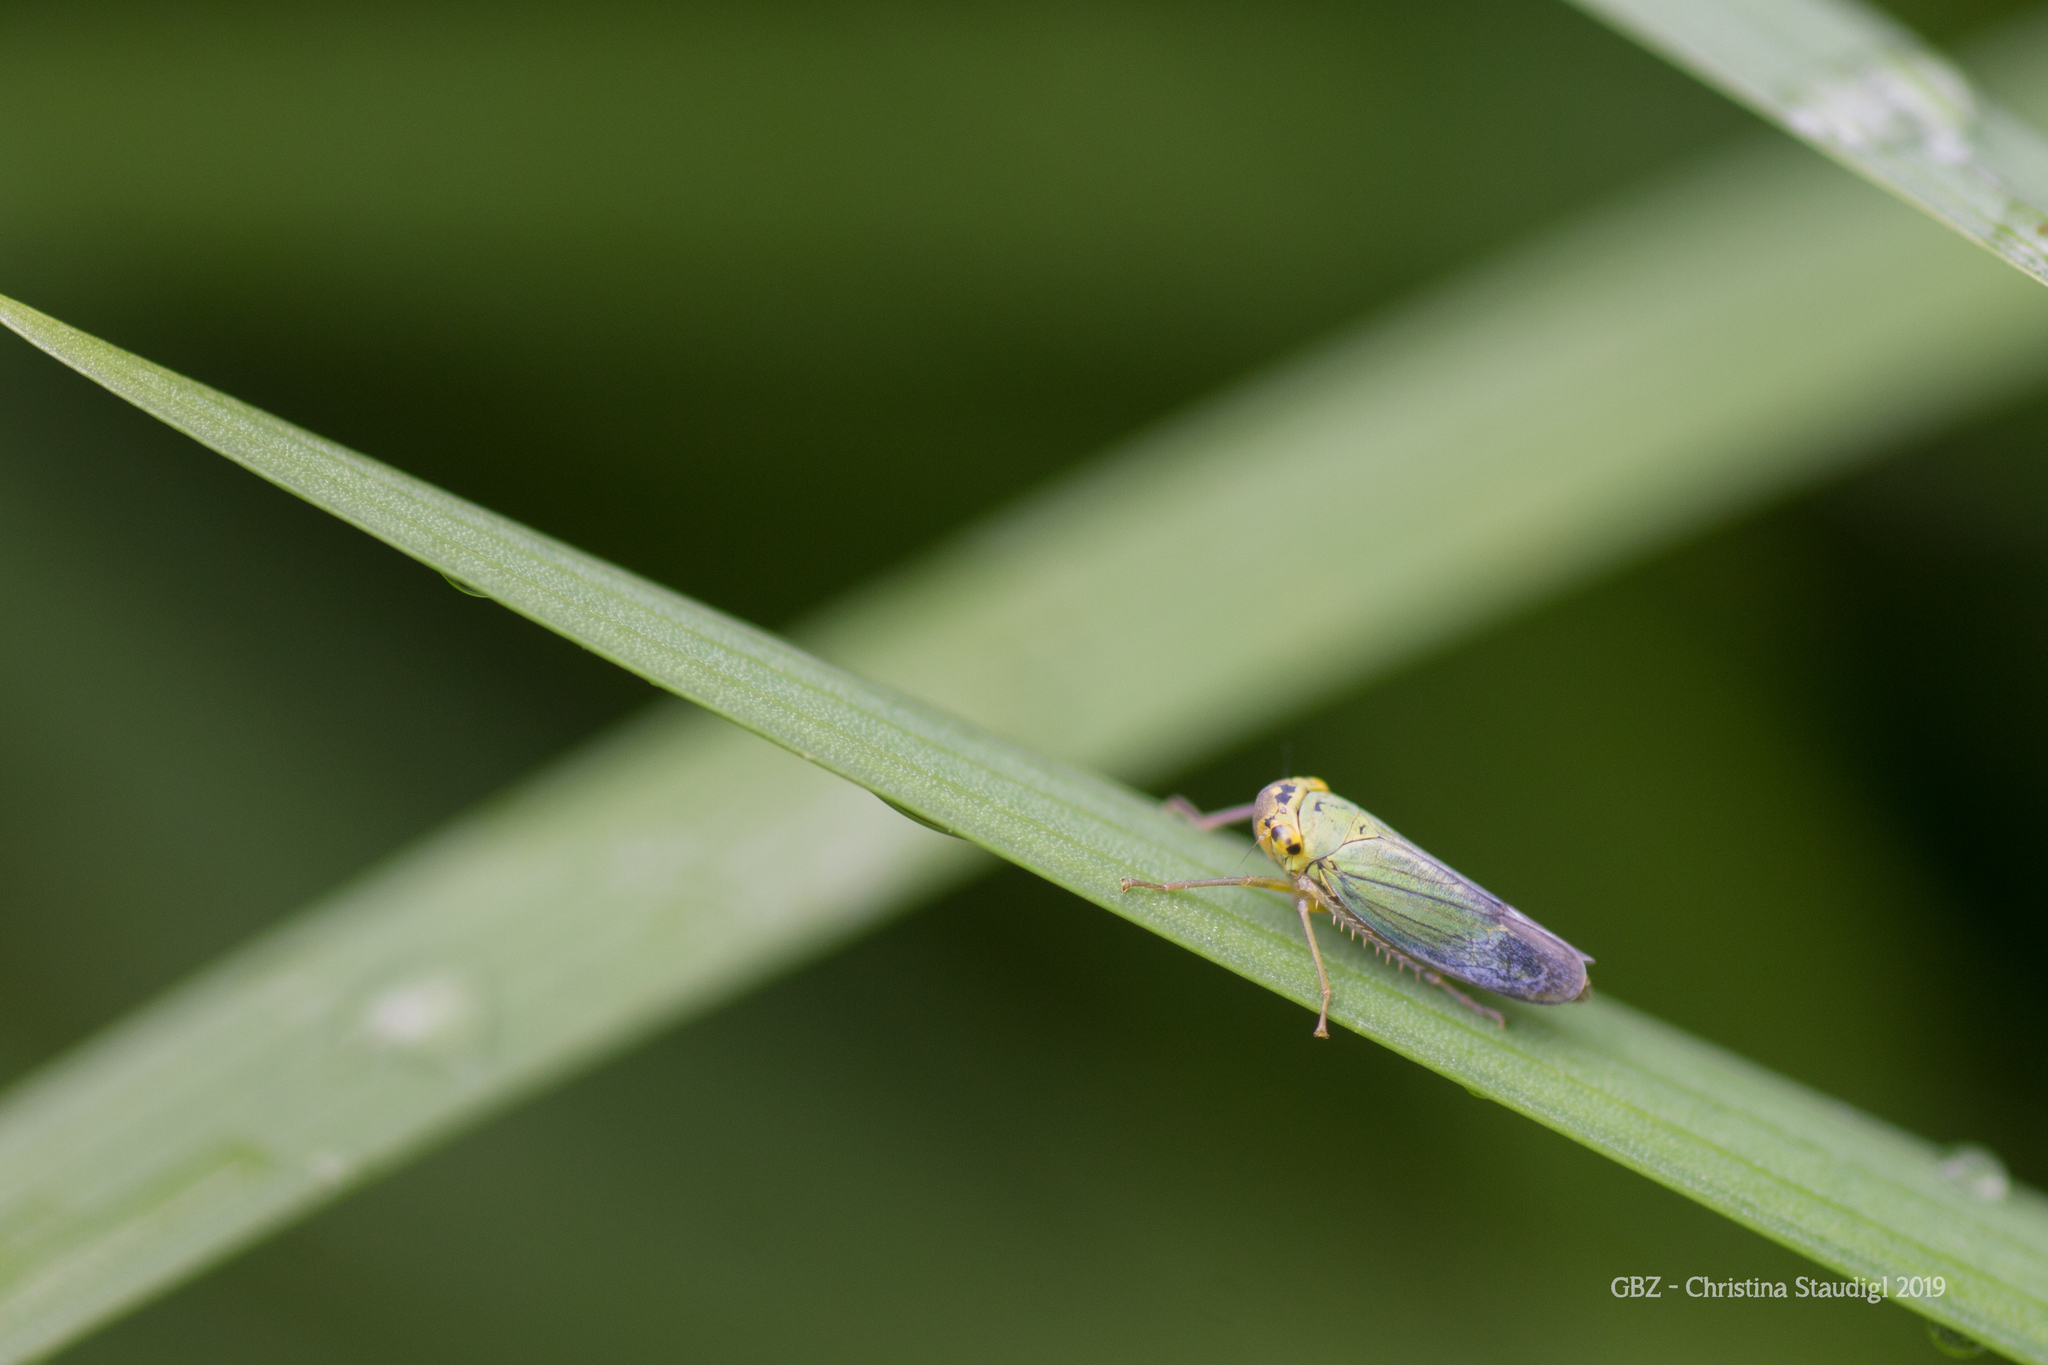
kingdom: Animalia
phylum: Arthropoda
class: Insecta
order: Hemiptera
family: Cicadellidae
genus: Cicadella
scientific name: Cicadella viridis
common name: Leafhopper
